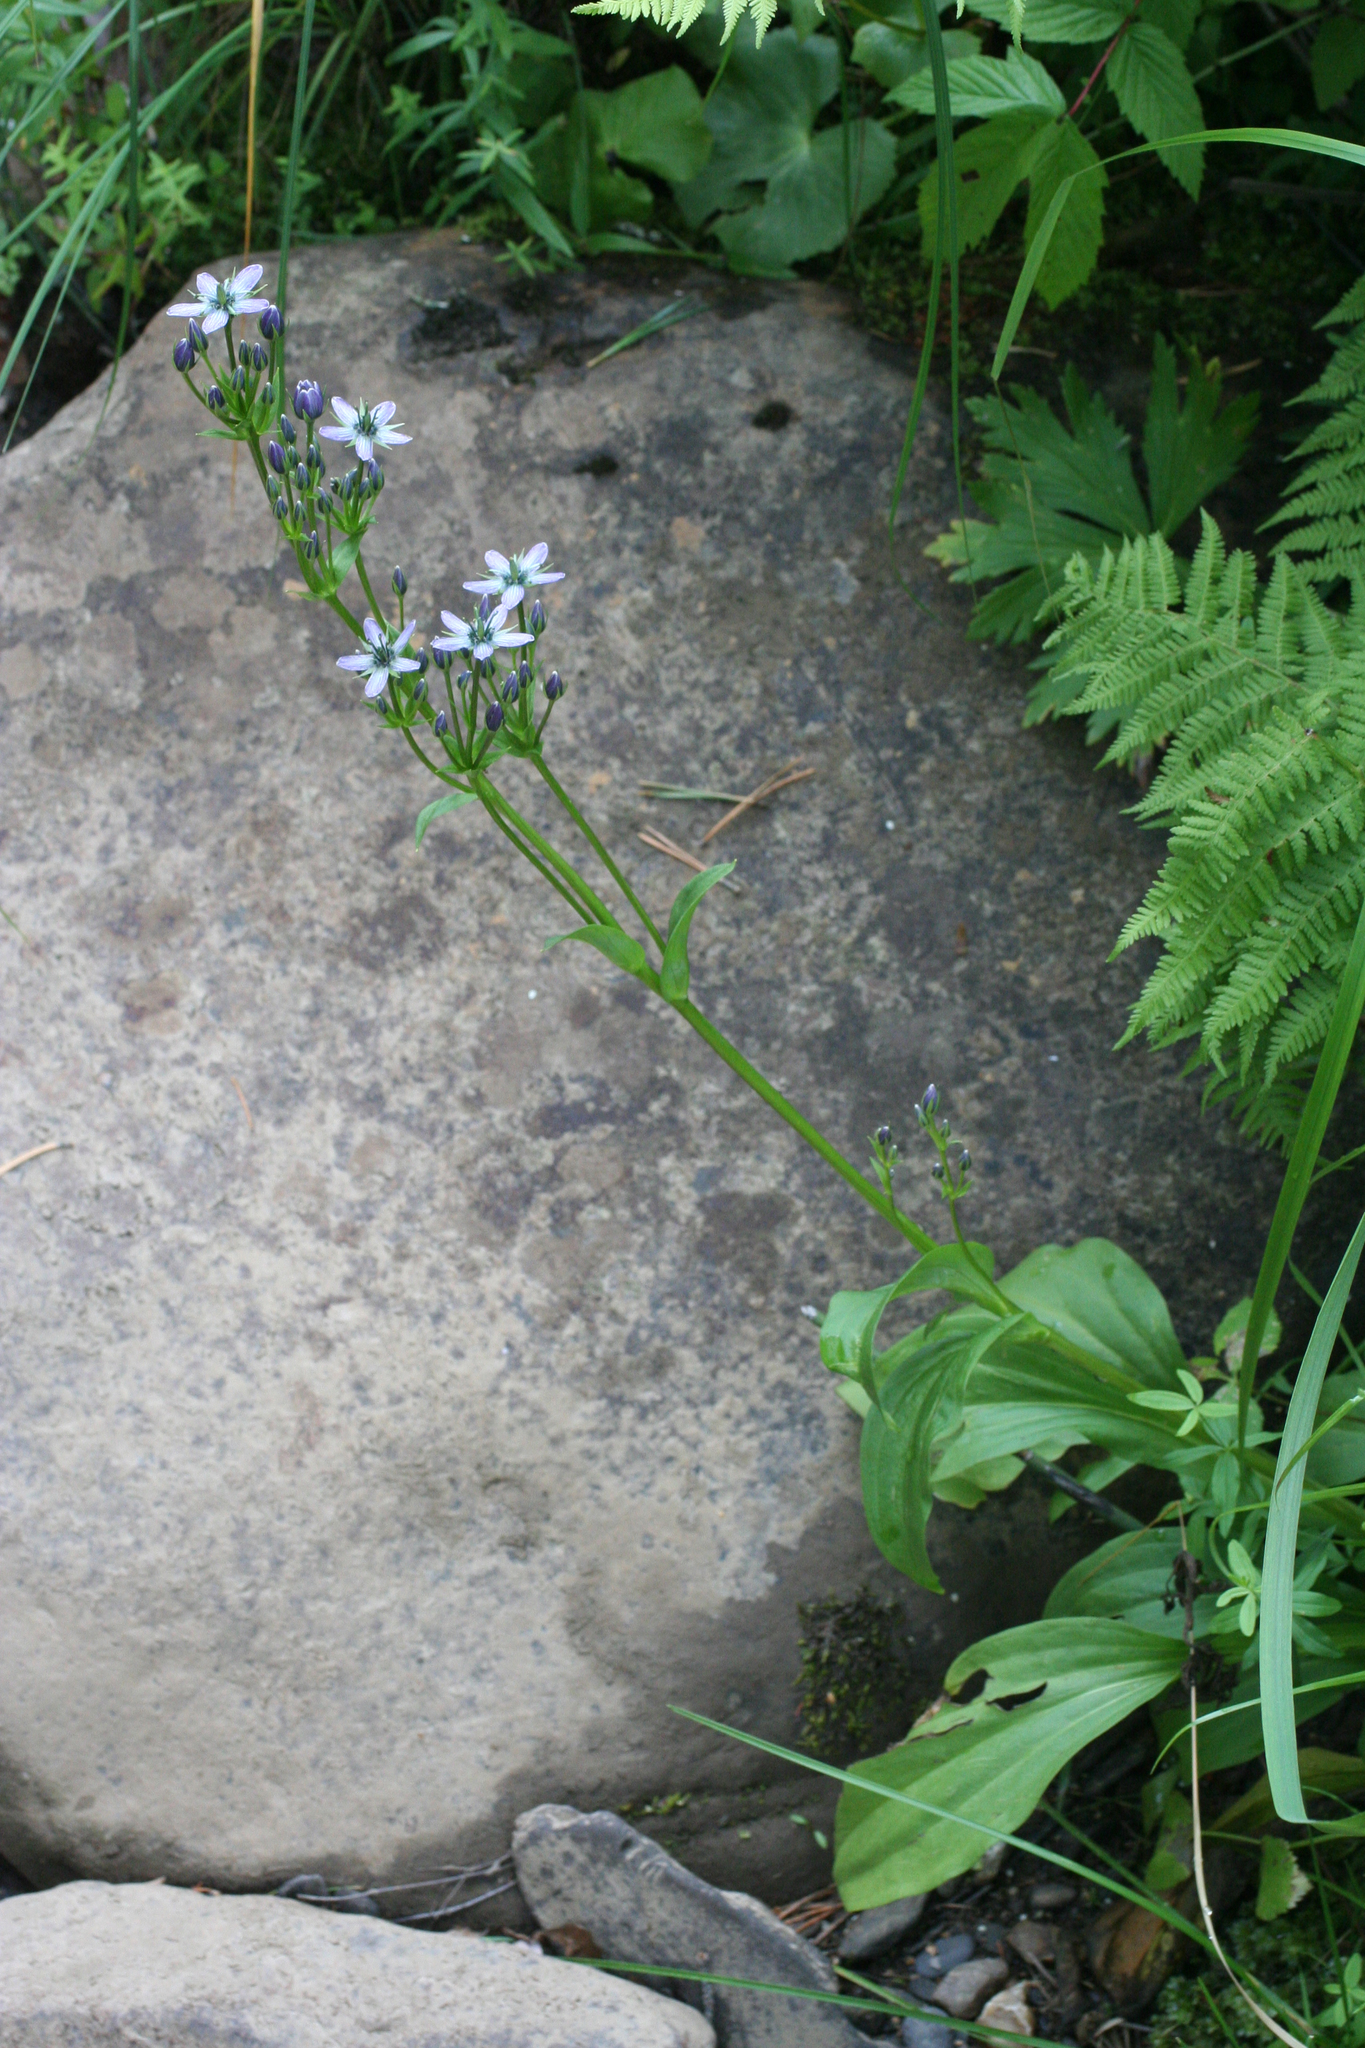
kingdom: Plantae
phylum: Tracheophyta
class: Magnoliopsida
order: Gentianales
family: Gentianaceae
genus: Swertia
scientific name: Swertia obtusa
